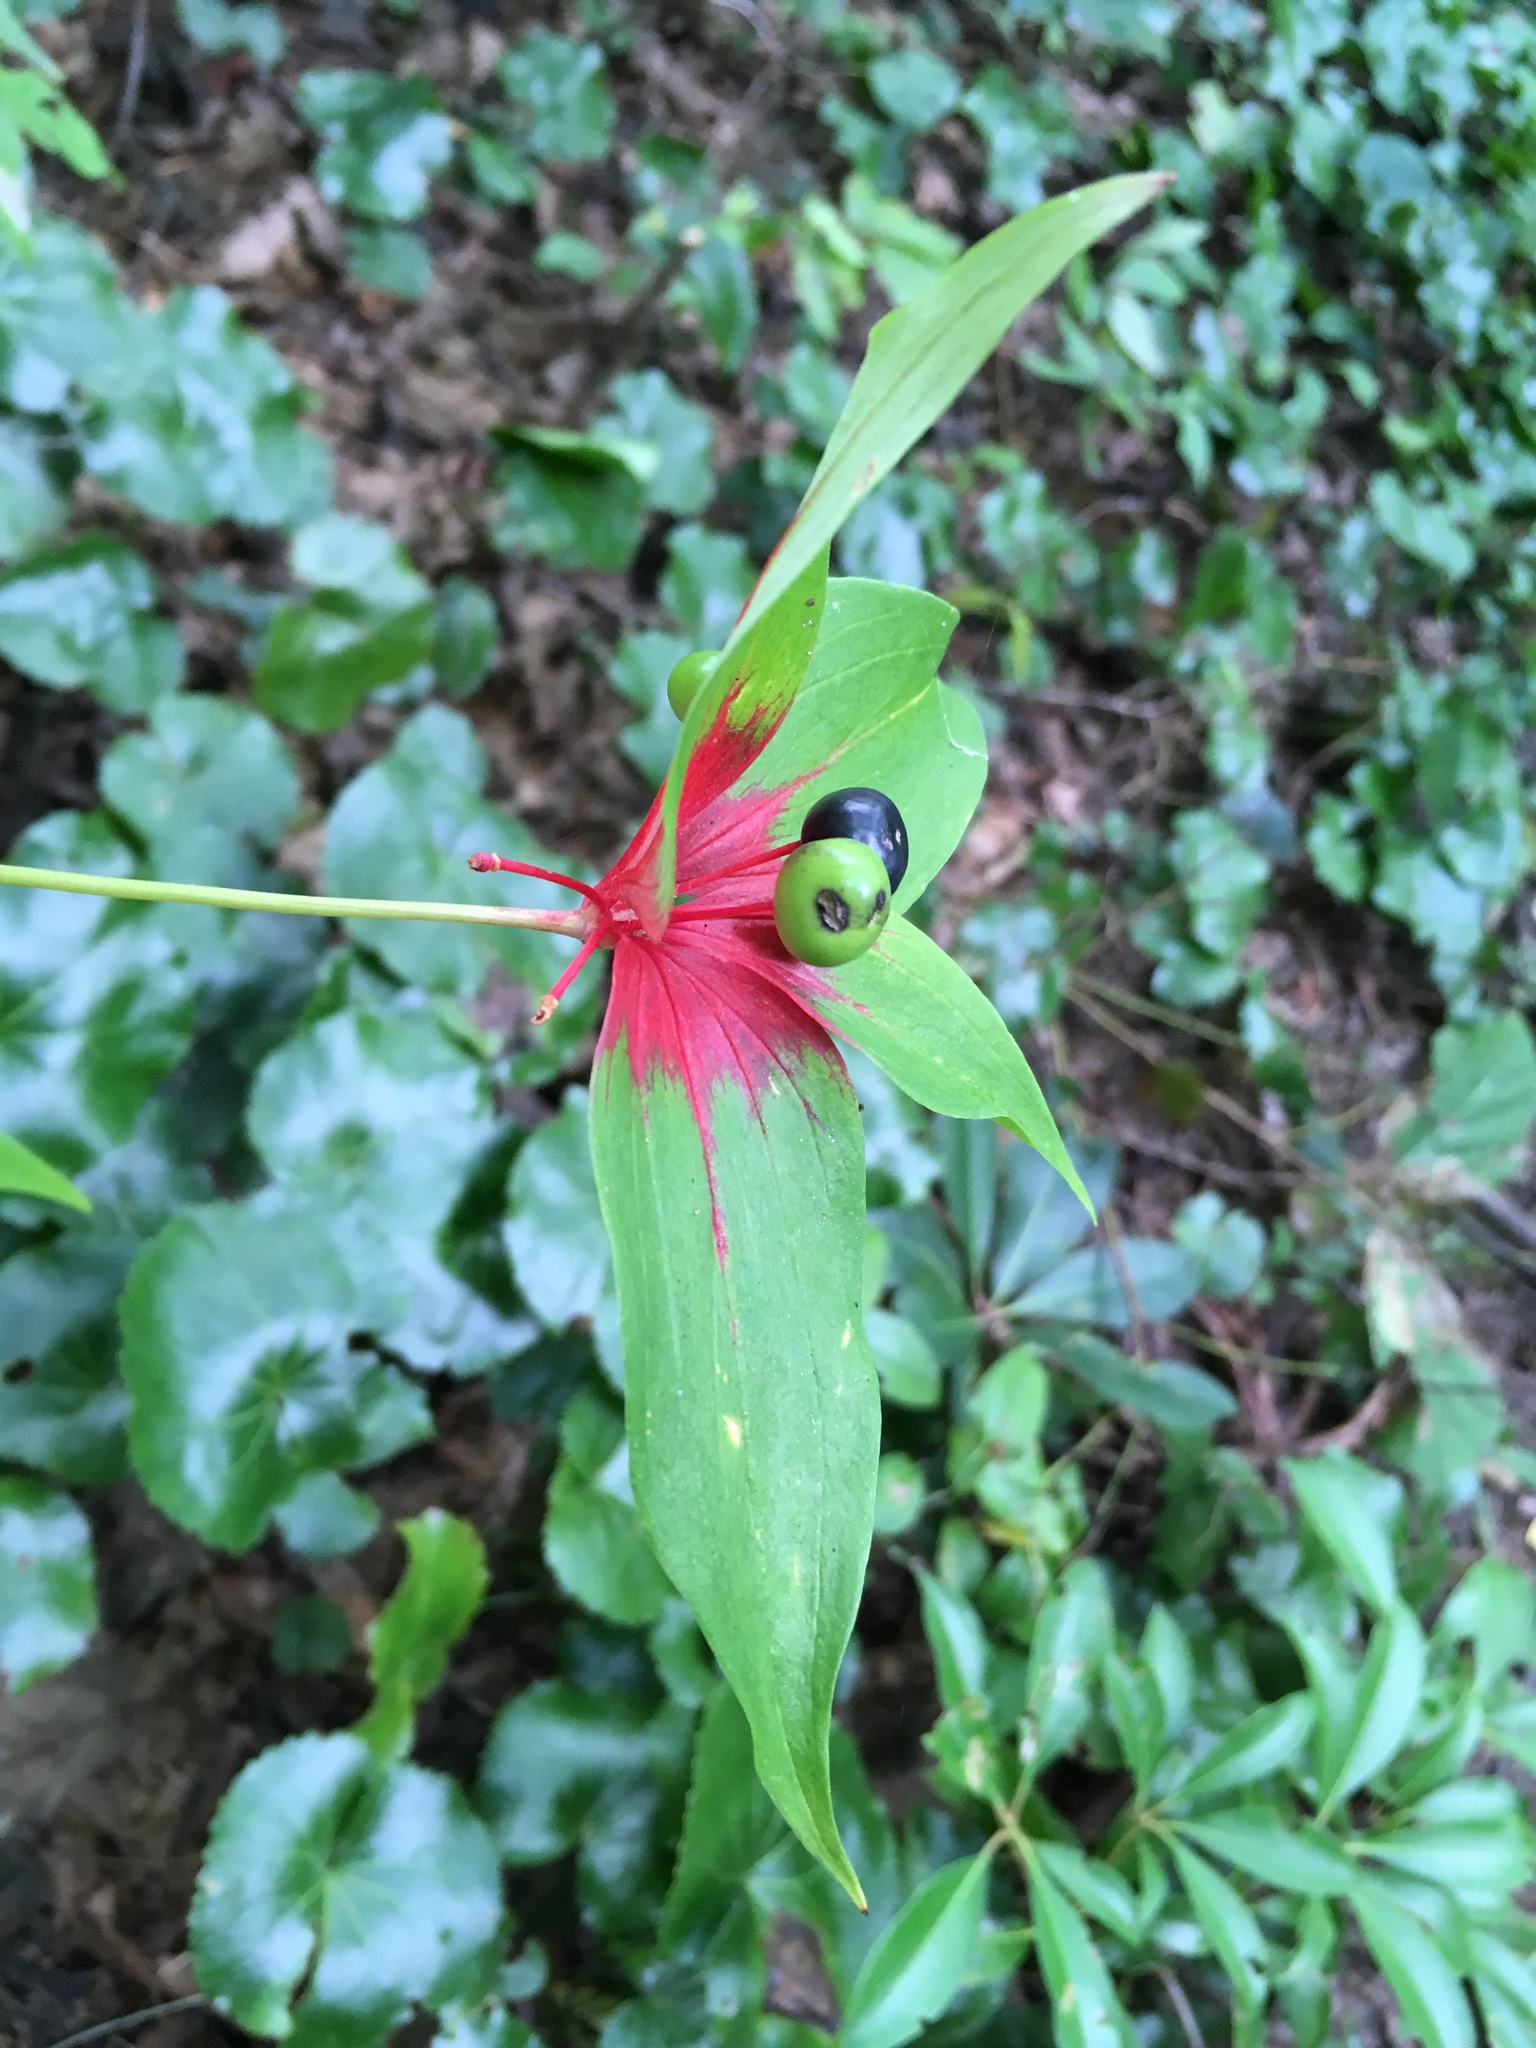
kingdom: Plantae
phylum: Tracheophyta
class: Liliopsida
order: Liliales
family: Liliaceae
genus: Medeola
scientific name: Medeola virginiana
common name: Indian cucumber-root
